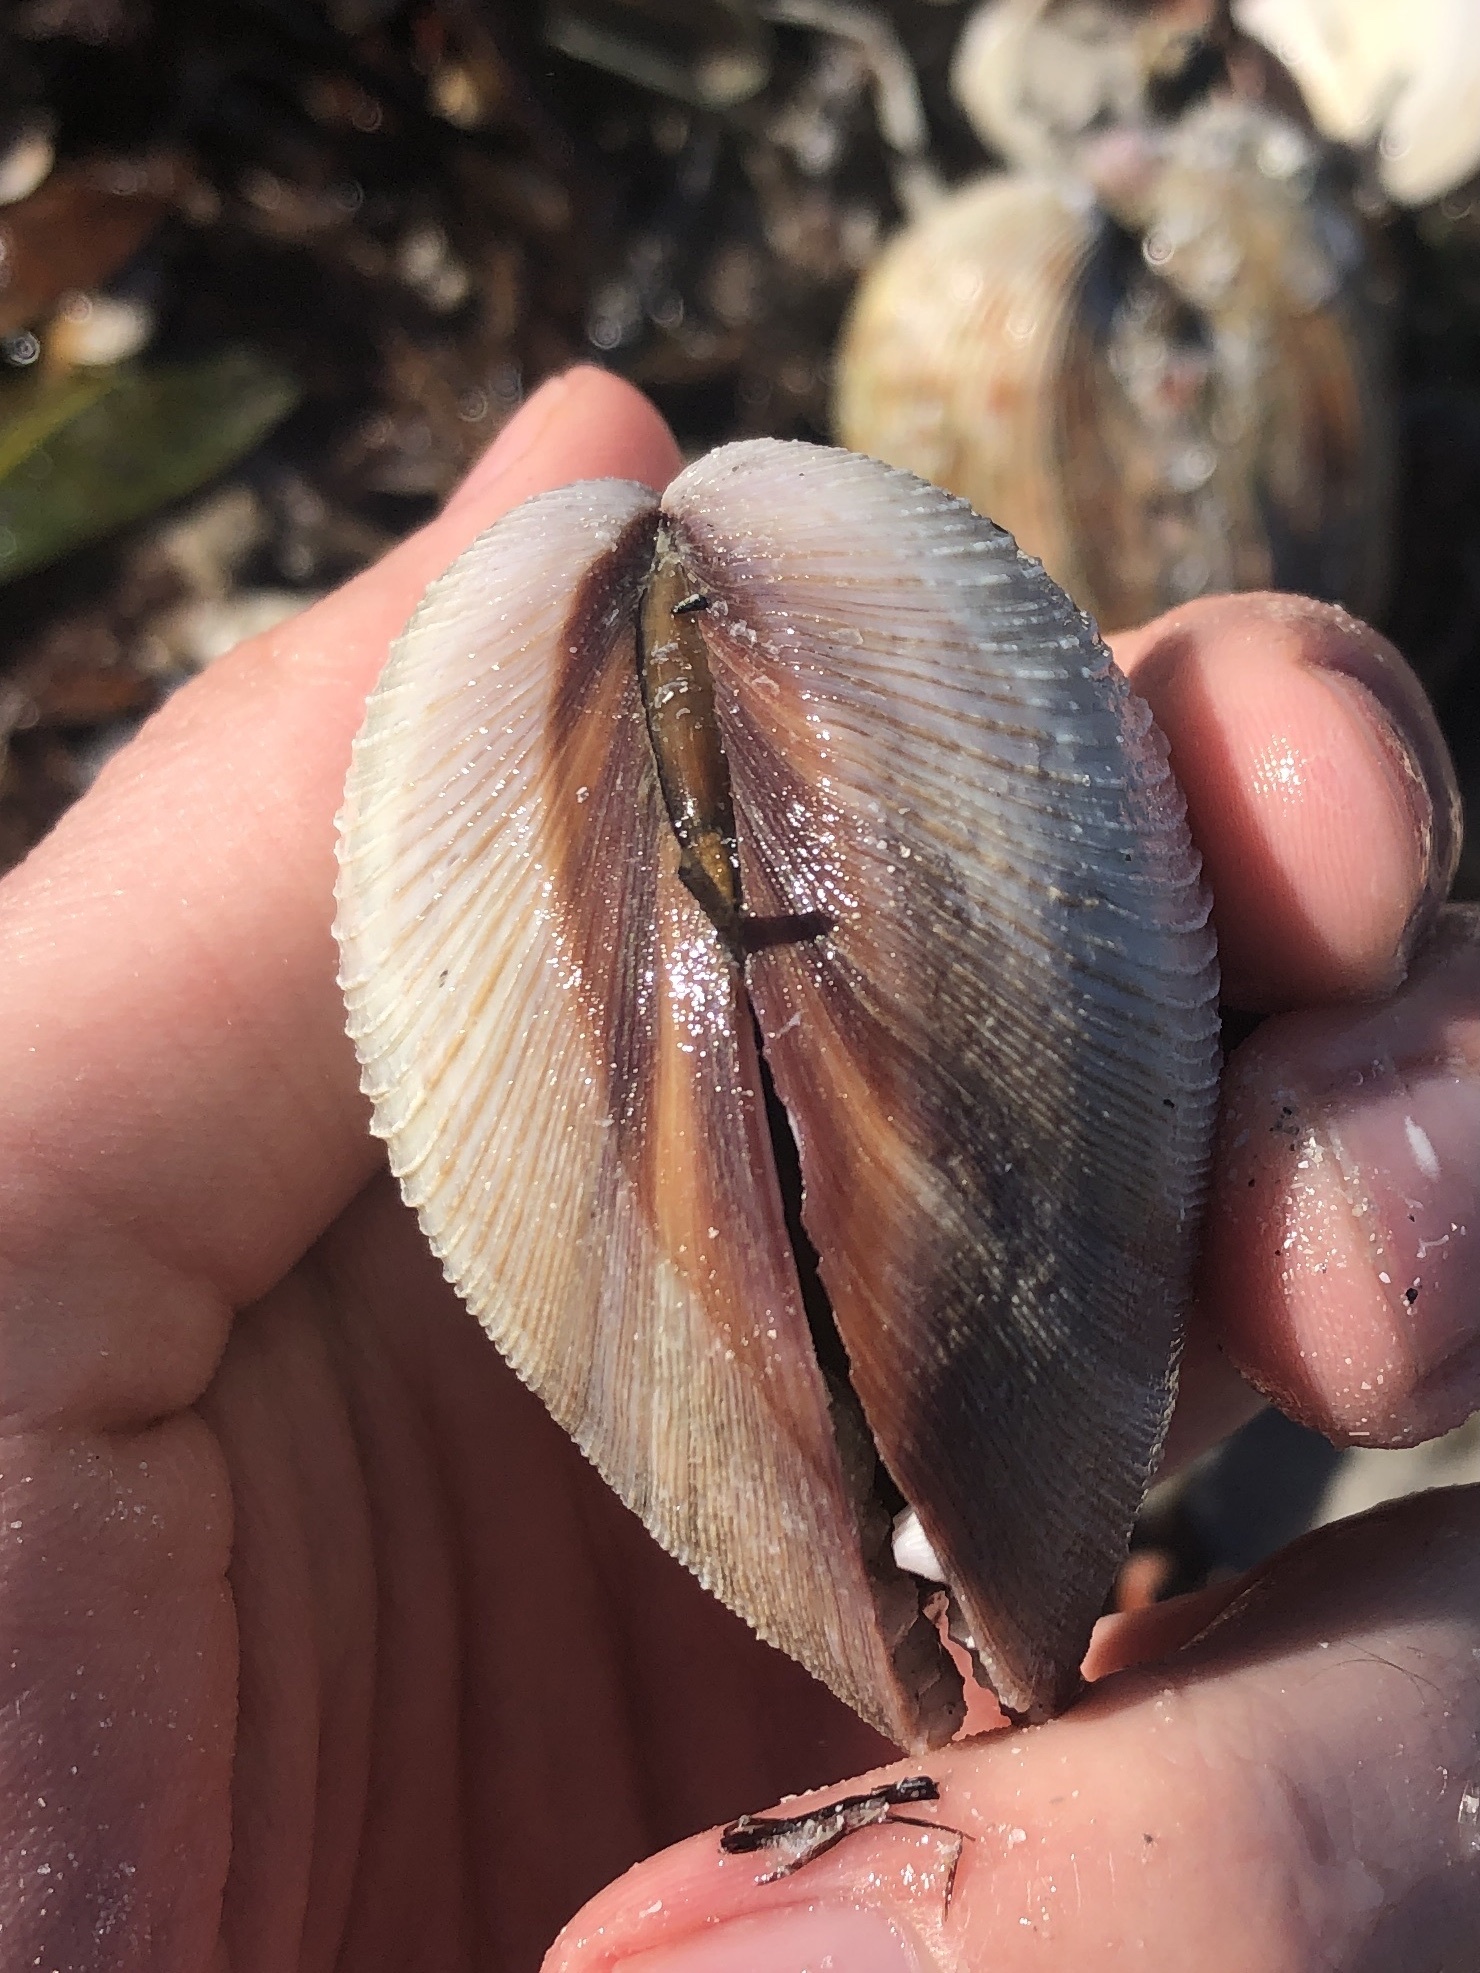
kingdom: Animalia
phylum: Mollusca
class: Bivalvia
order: Venerida
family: Veneridae
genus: Mercenaria
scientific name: Mercenaria campechiensis
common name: Südliche quahog-muschel
